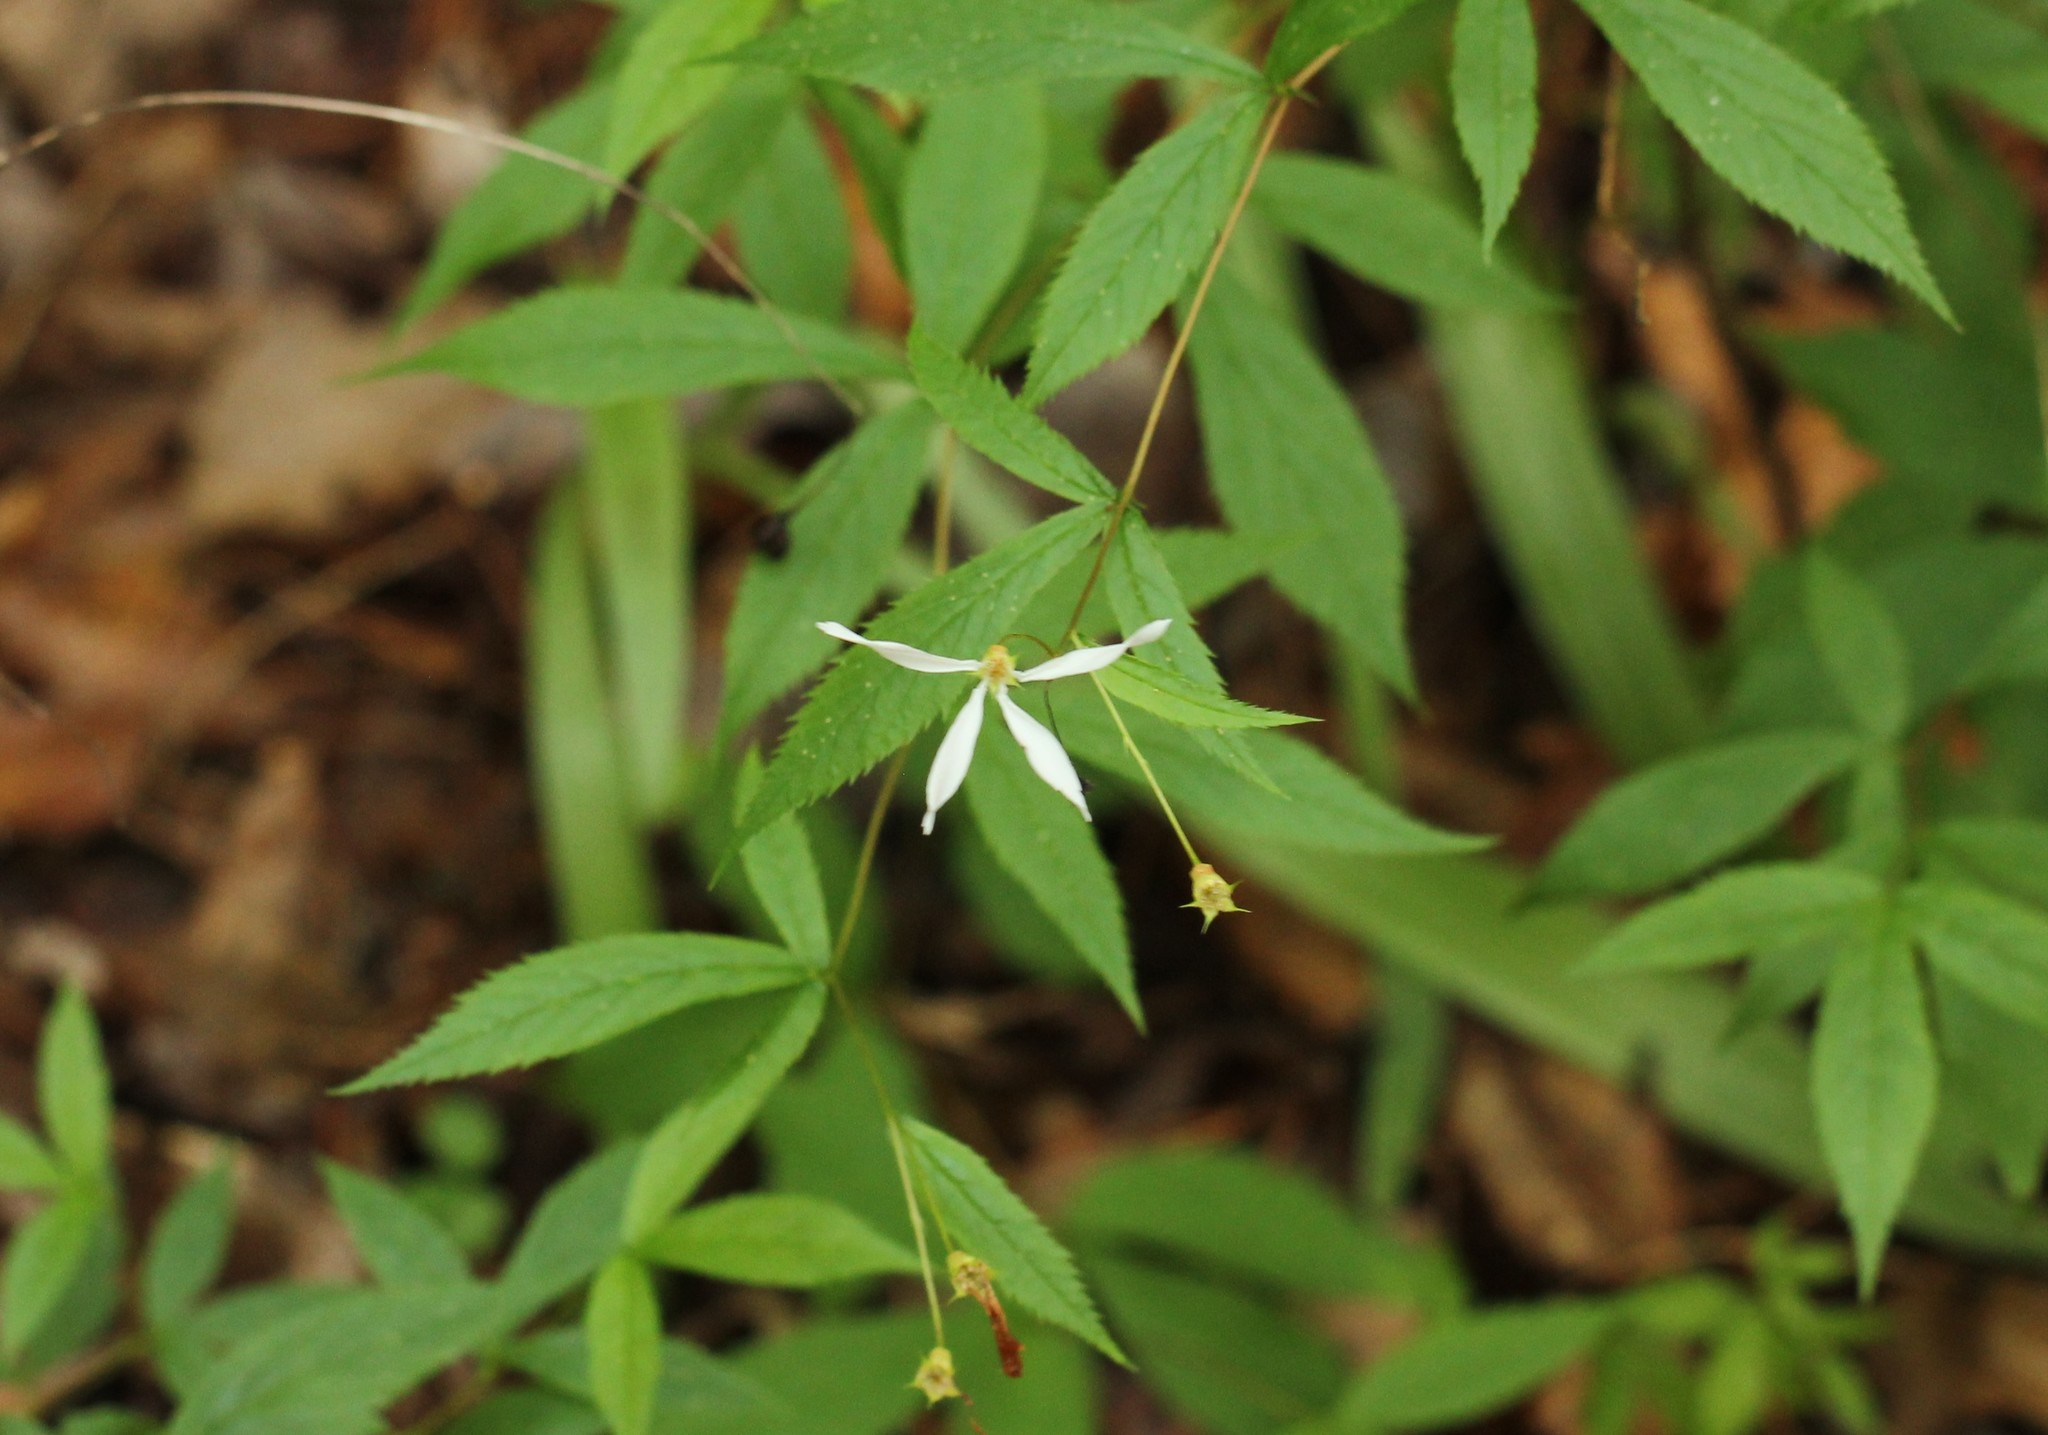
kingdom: Plantae
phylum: Tracheophyta
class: Magnoliopsida
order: Rosales
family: Rosaceae
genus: Gillenia
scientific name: Gillenia trifoliata
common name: Bowman's-root
